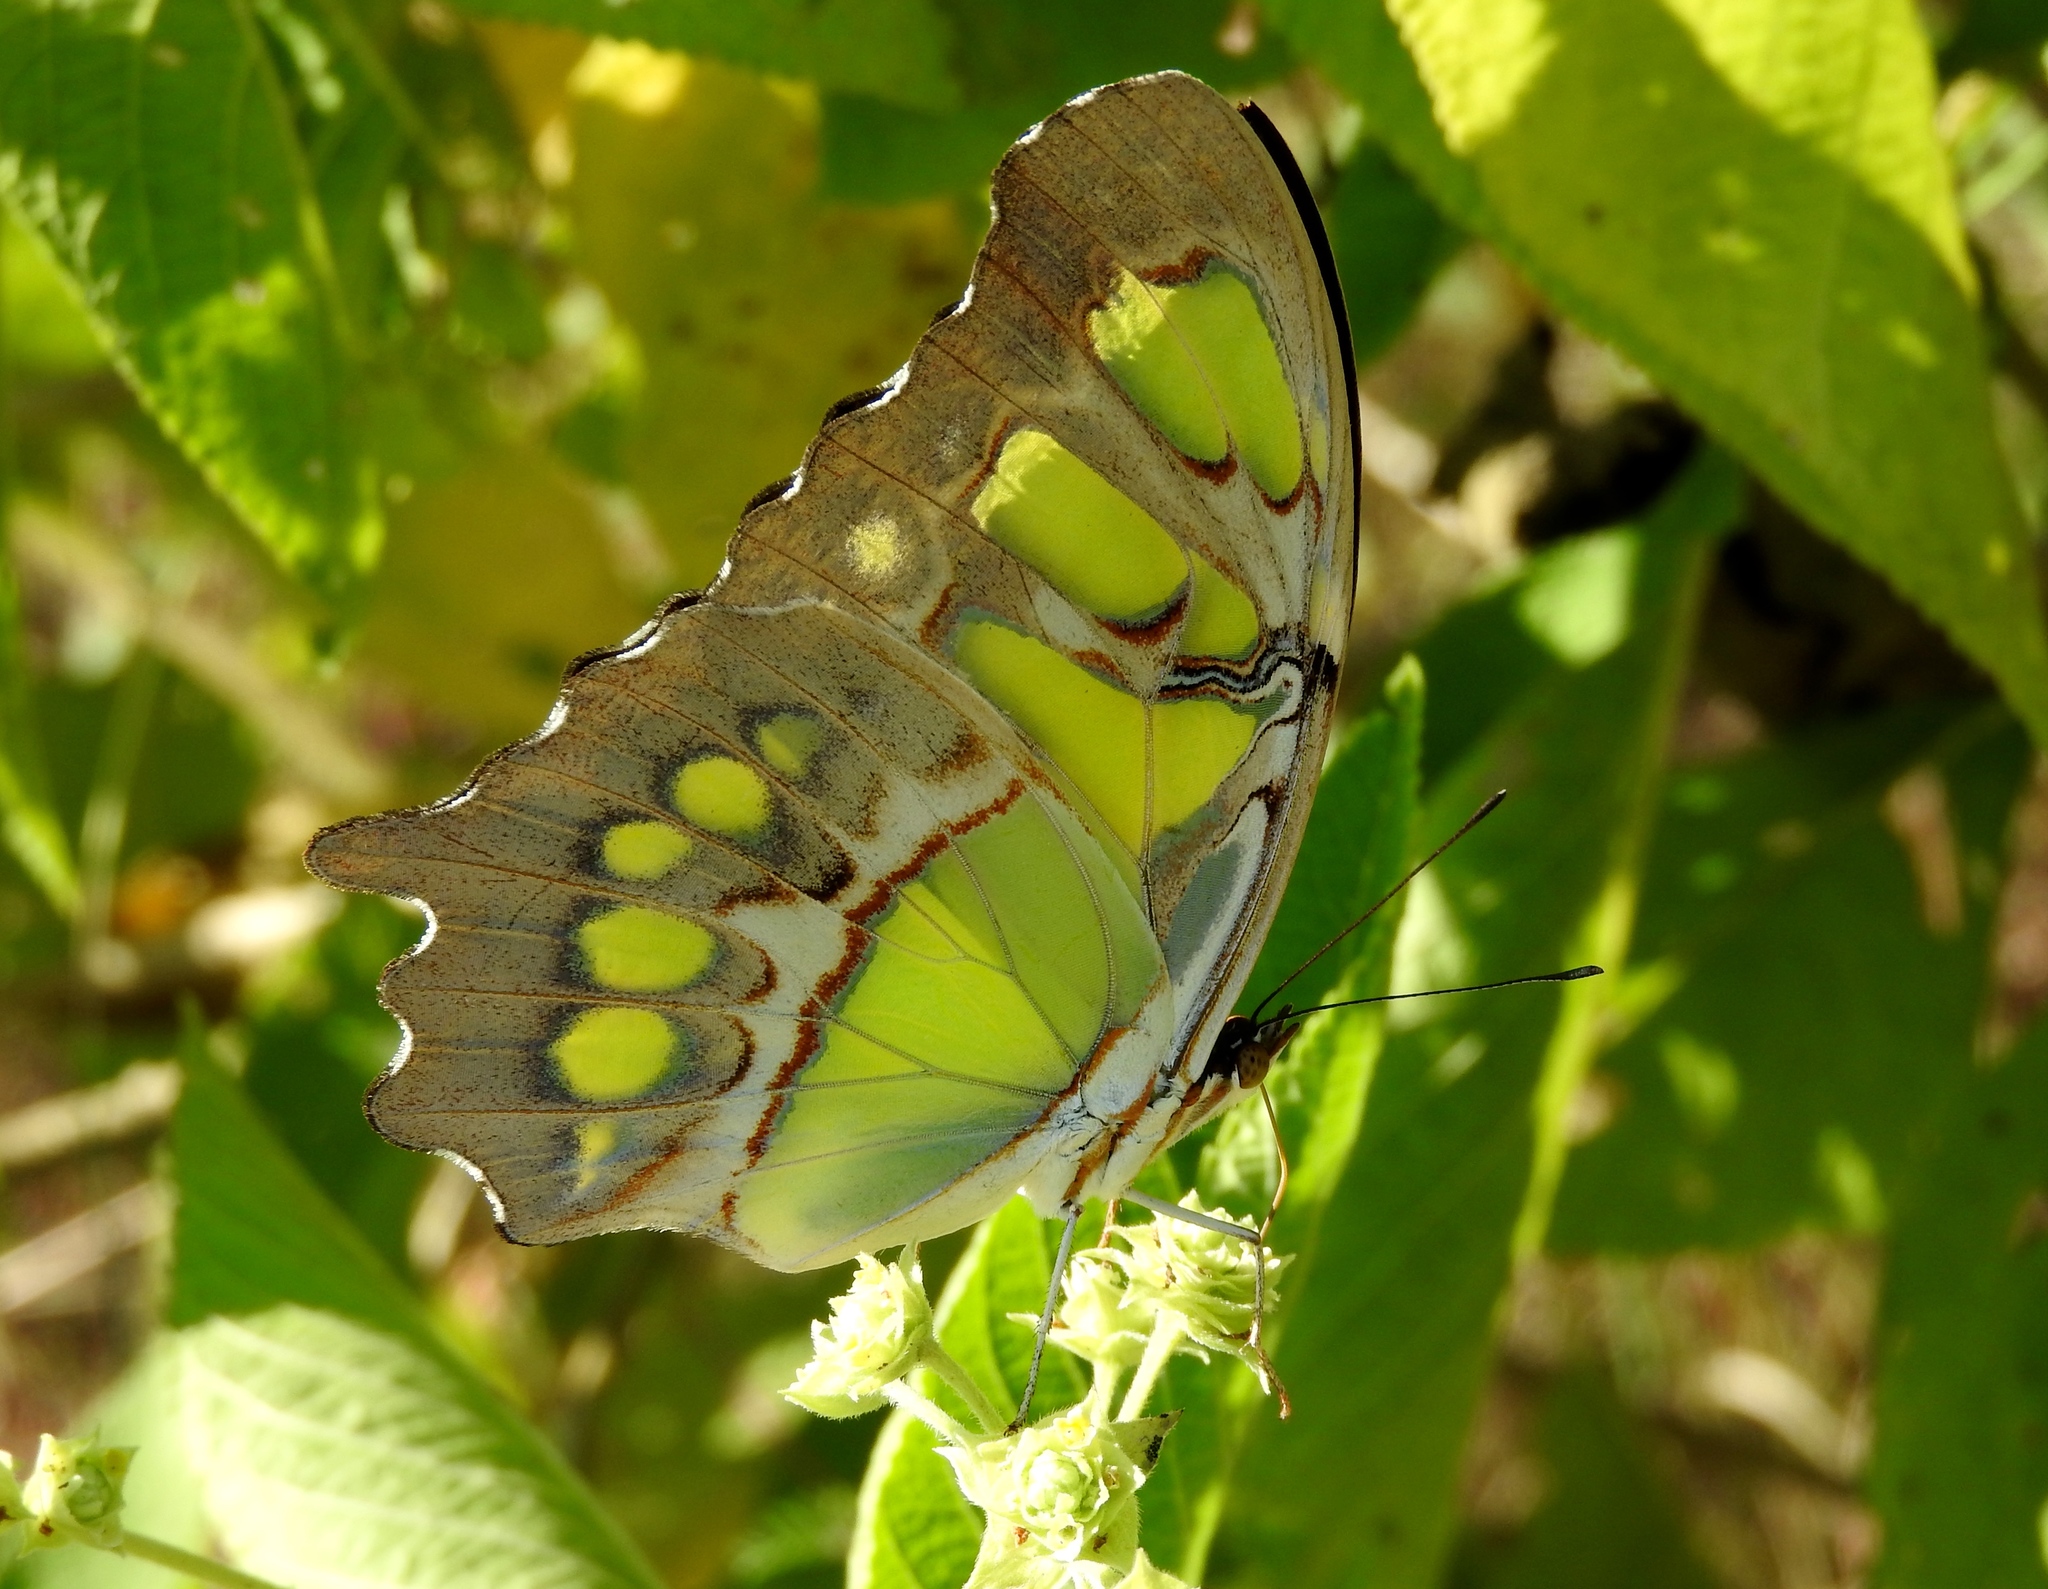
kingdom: Animalia
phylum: Arthropoda
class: Insecta
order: Lepidoptera
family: Nymphalidae
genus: Siproeta
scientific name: Siproeta stelenes
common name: Malachite
